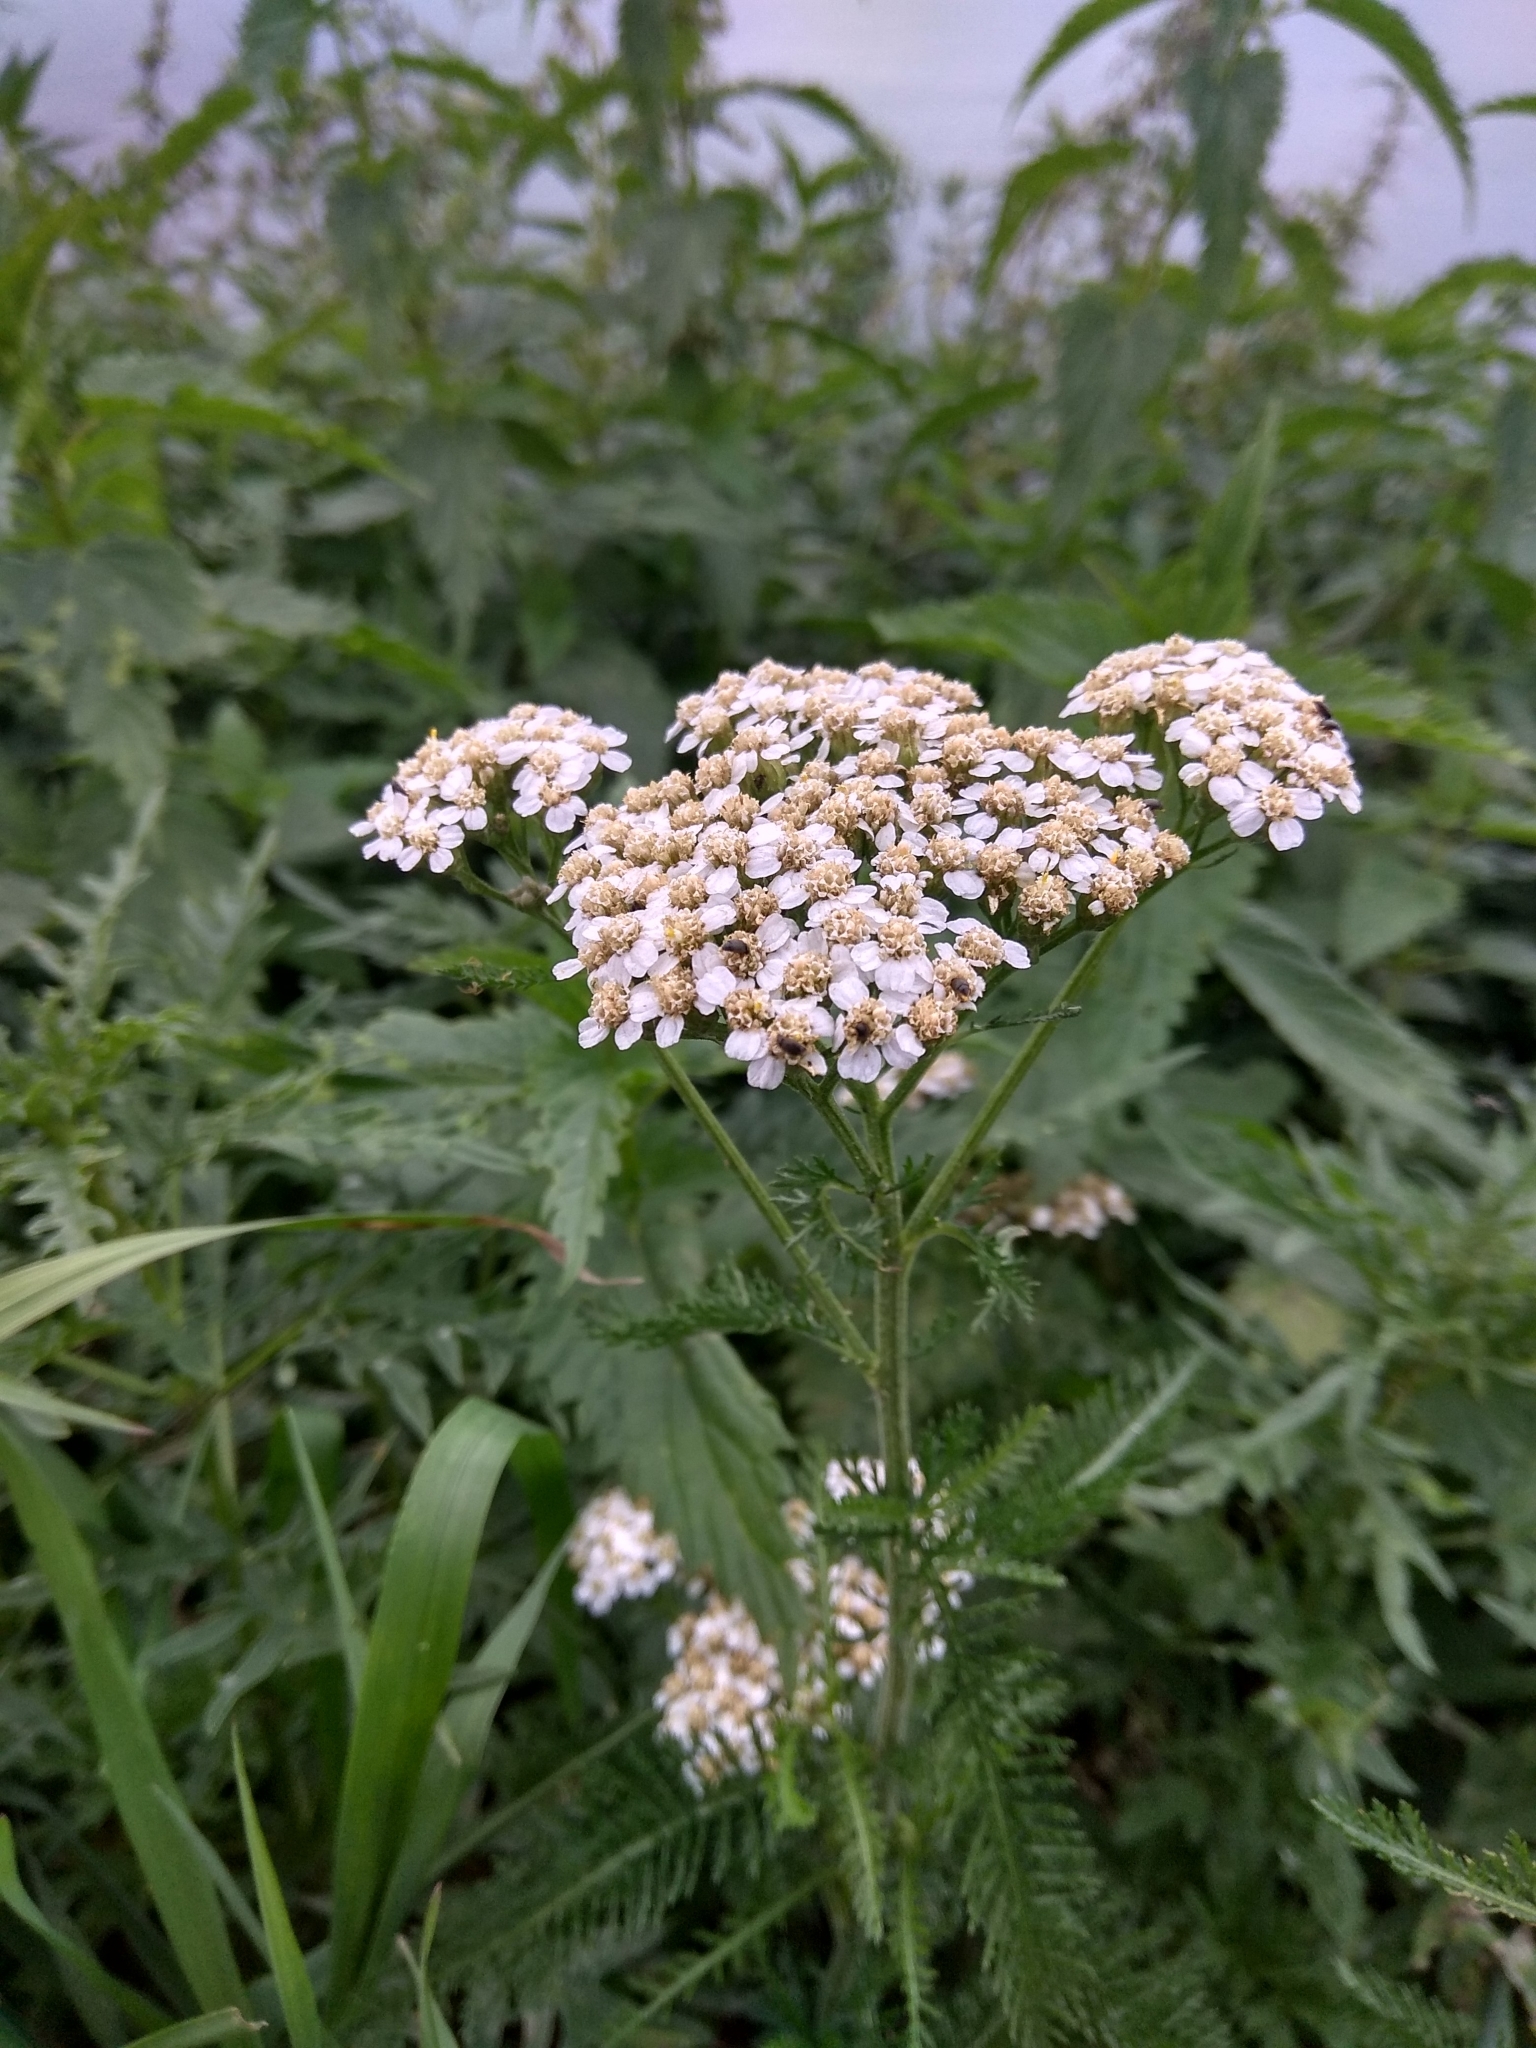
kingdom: Plantae
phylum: Tracheophyta
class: Magnoliopsida
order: Asterales
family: Asteraceae
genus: Achillea
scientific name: Achillea asiatica
